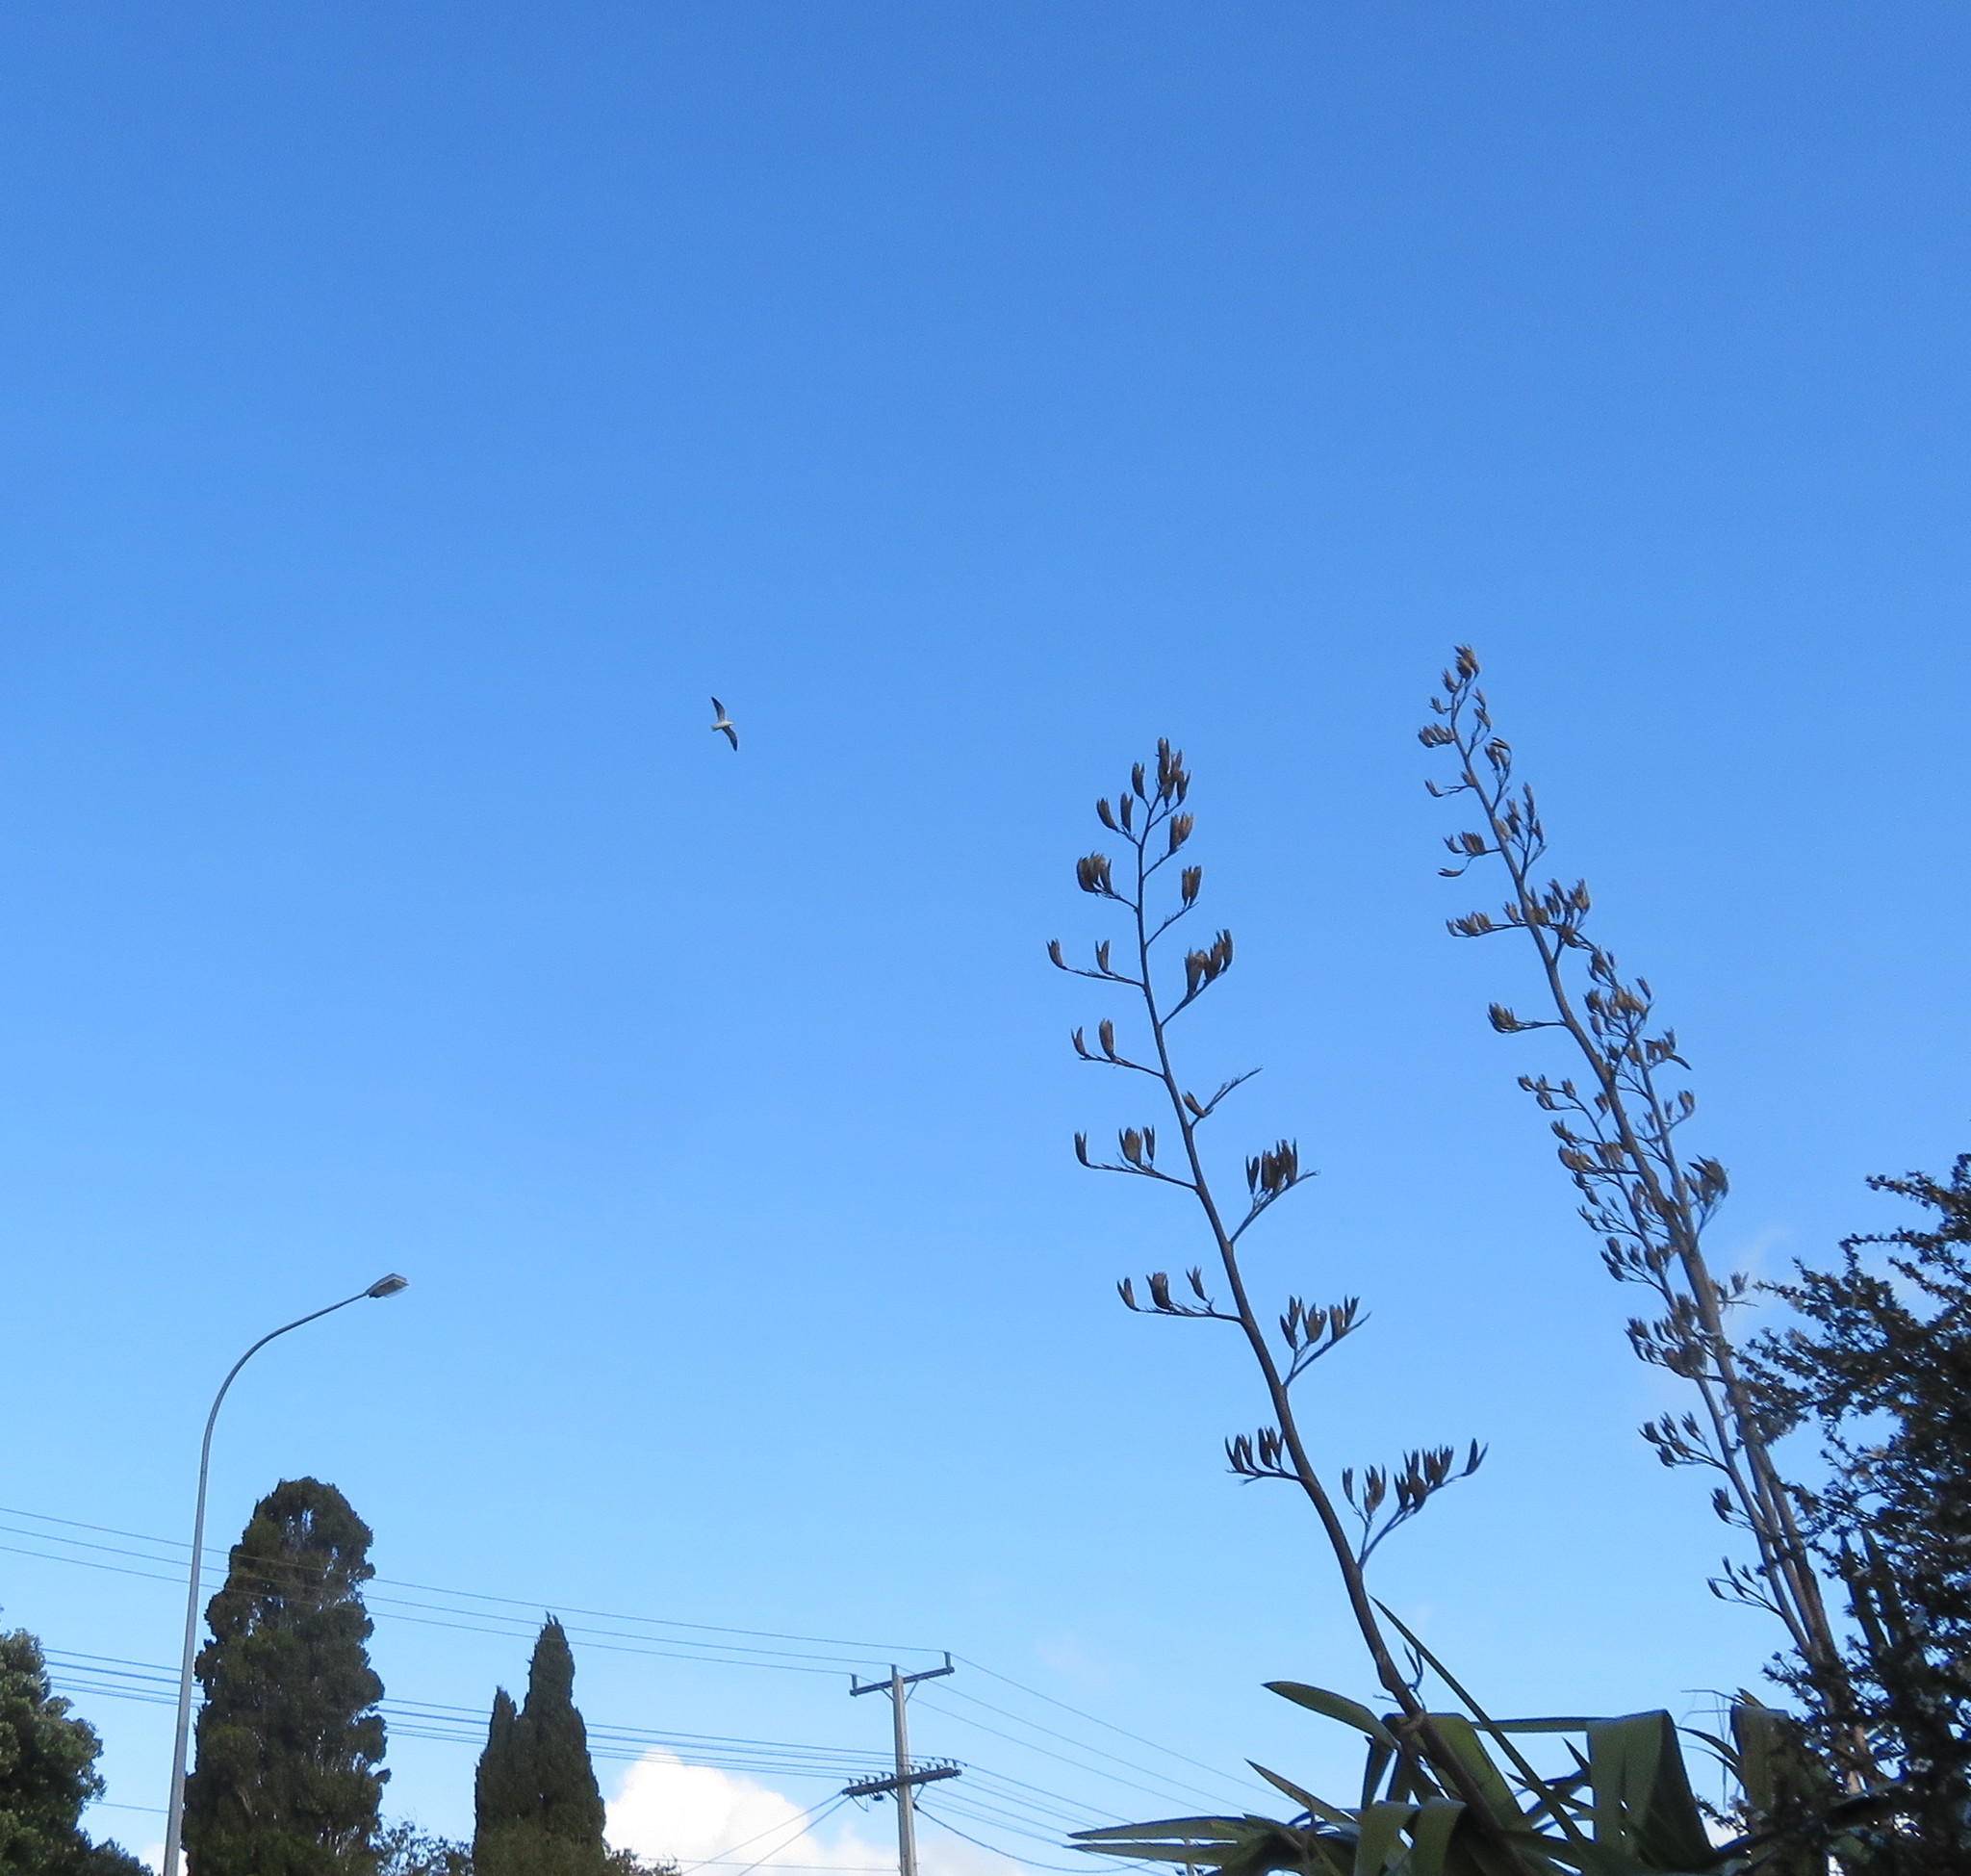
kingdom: Animalia
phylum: Chordata
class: Aves
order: Charadriiformes
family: Laridae
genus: Larus
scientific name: Larus dominicanus
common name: Kelp gull
